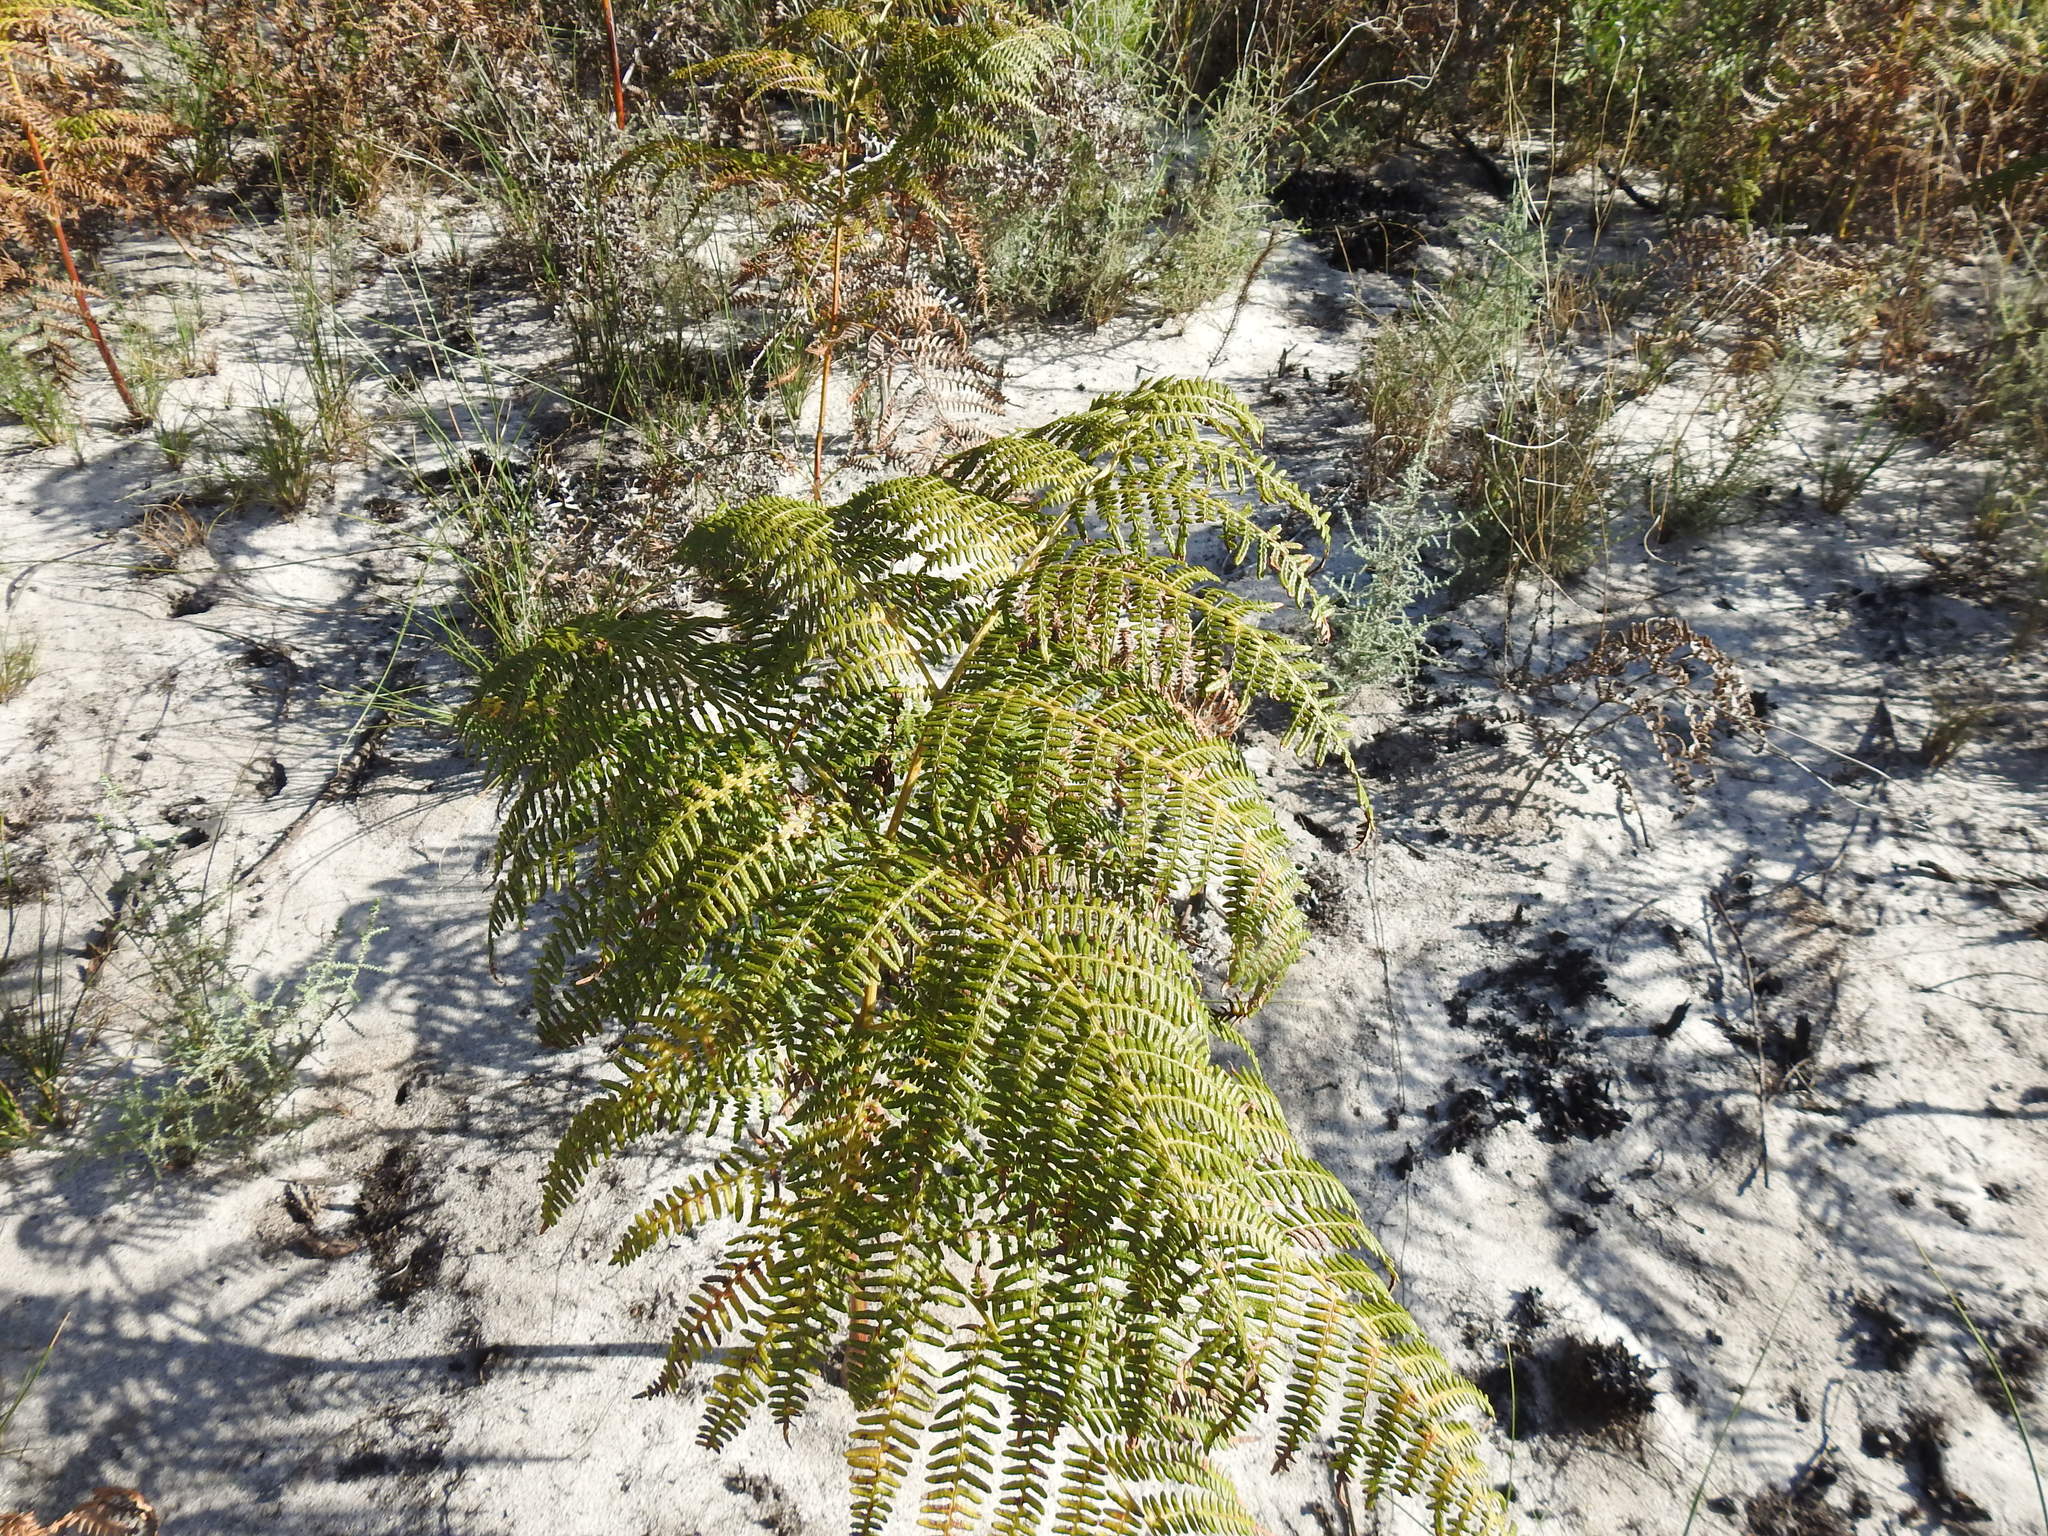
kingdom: Plantae
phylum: Tracheophyta
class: Polypodiopsida
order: Polypodiales
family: Dennstaedtiaceae
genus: Pteridium
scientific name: Pteridium aquilinum
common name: Bracken
